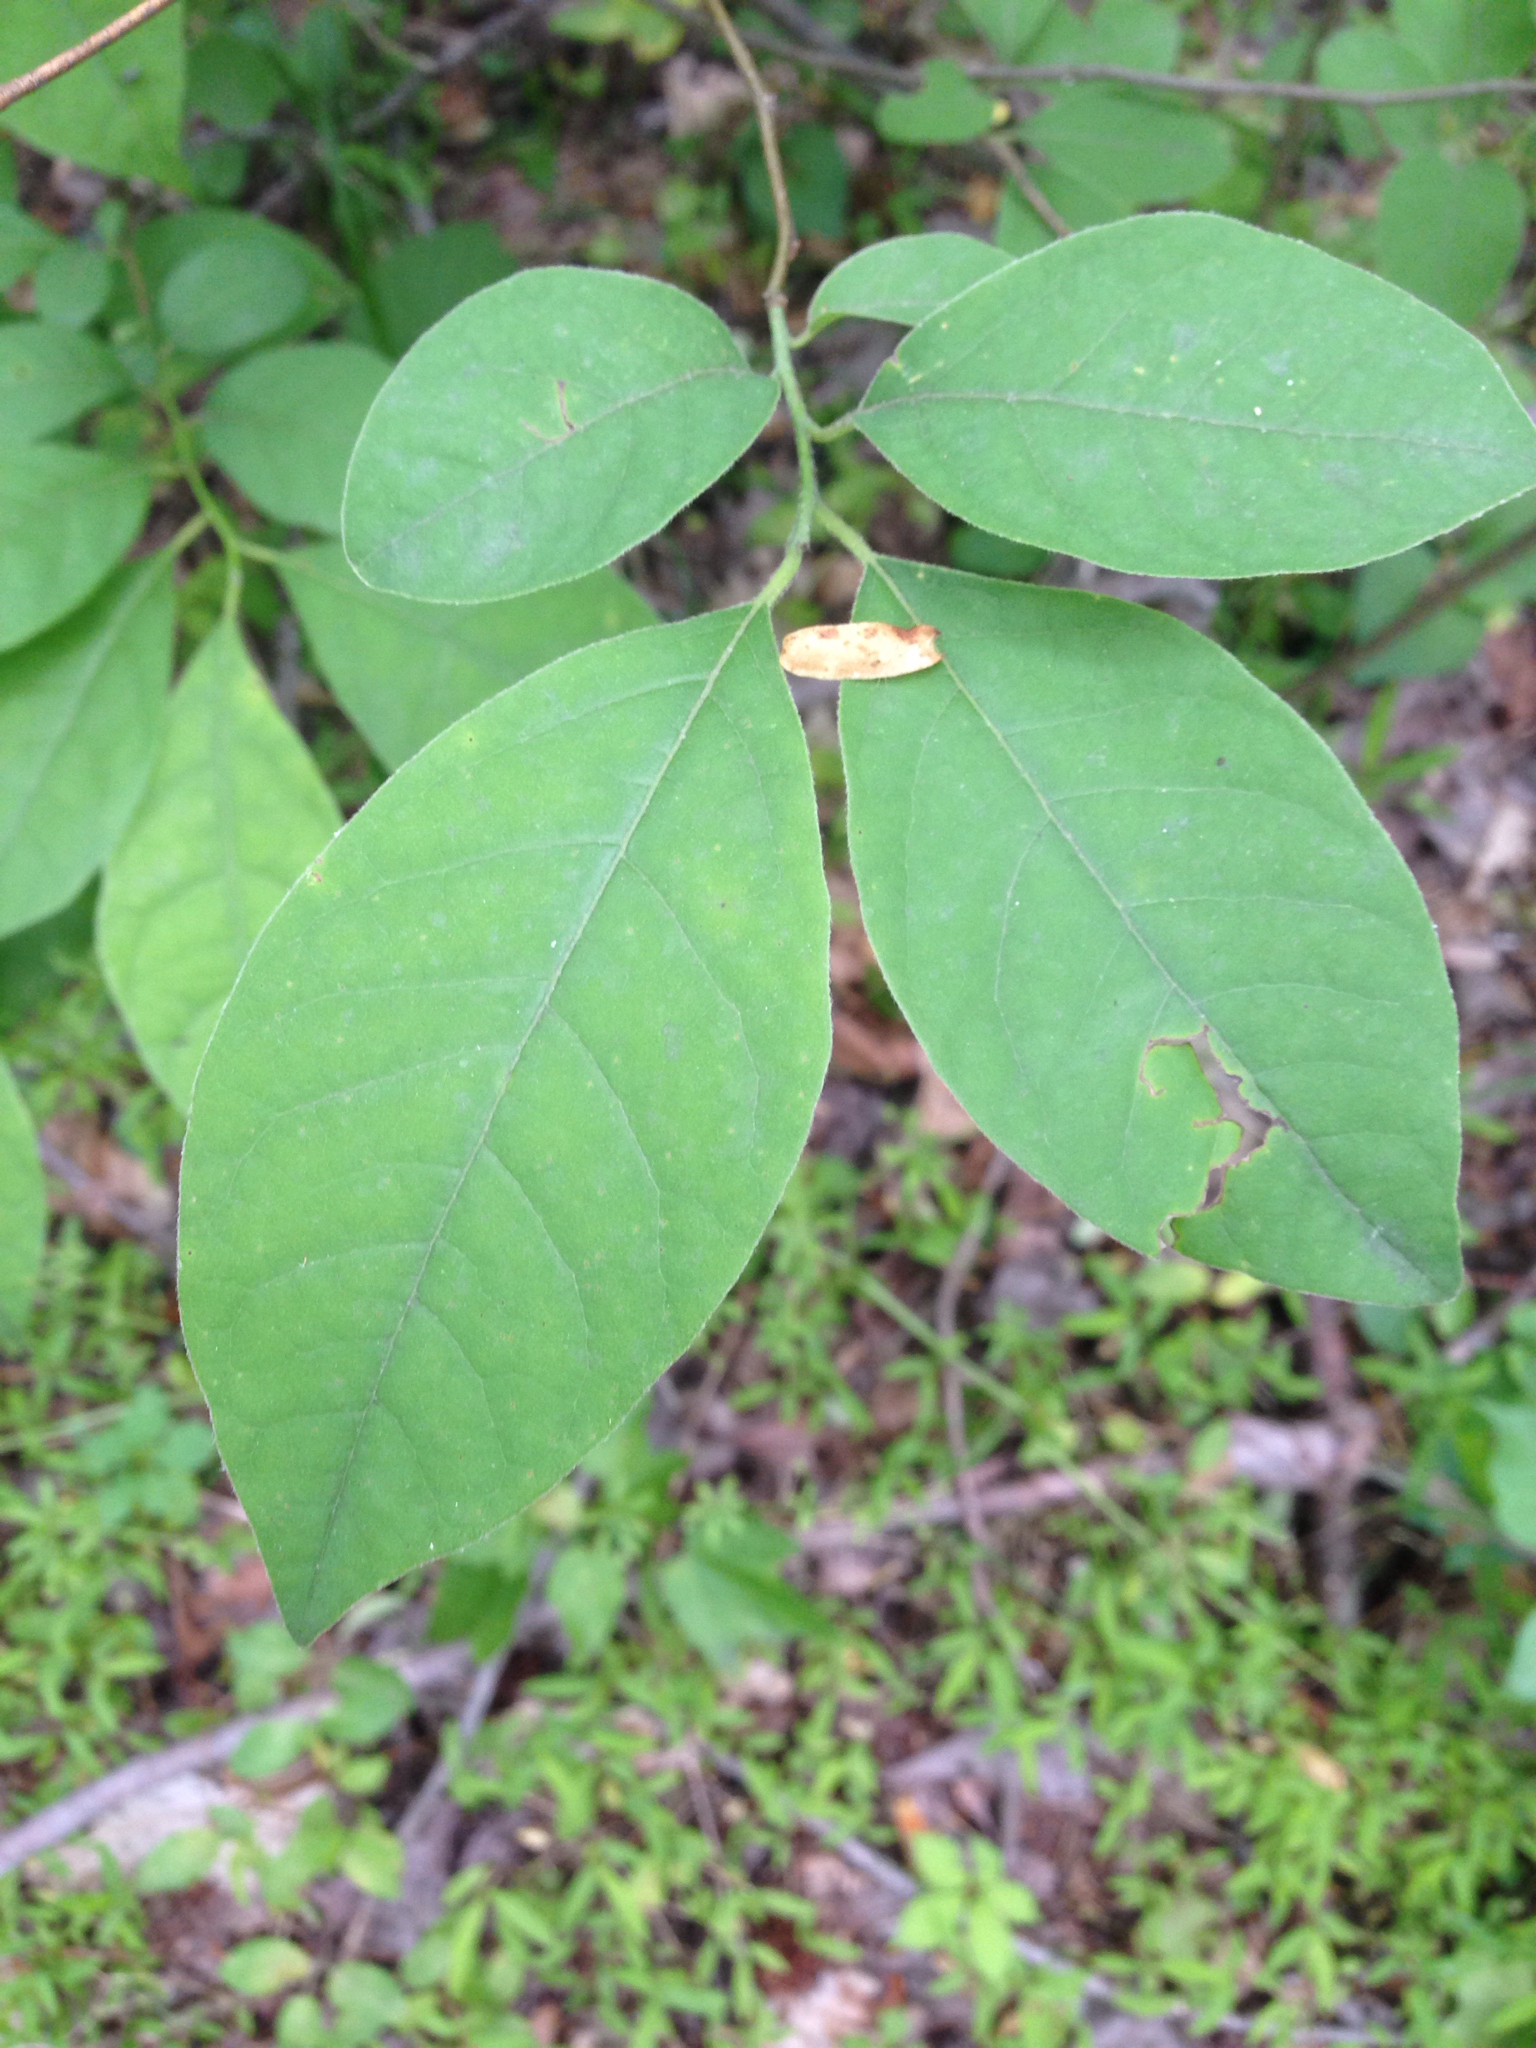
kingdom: Plantae
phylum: Tracheophyta
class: Magnoliopsida
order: Laurales
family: Lauraceae
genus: Lindera
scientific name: Lindera benzoin
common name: Spicebush
